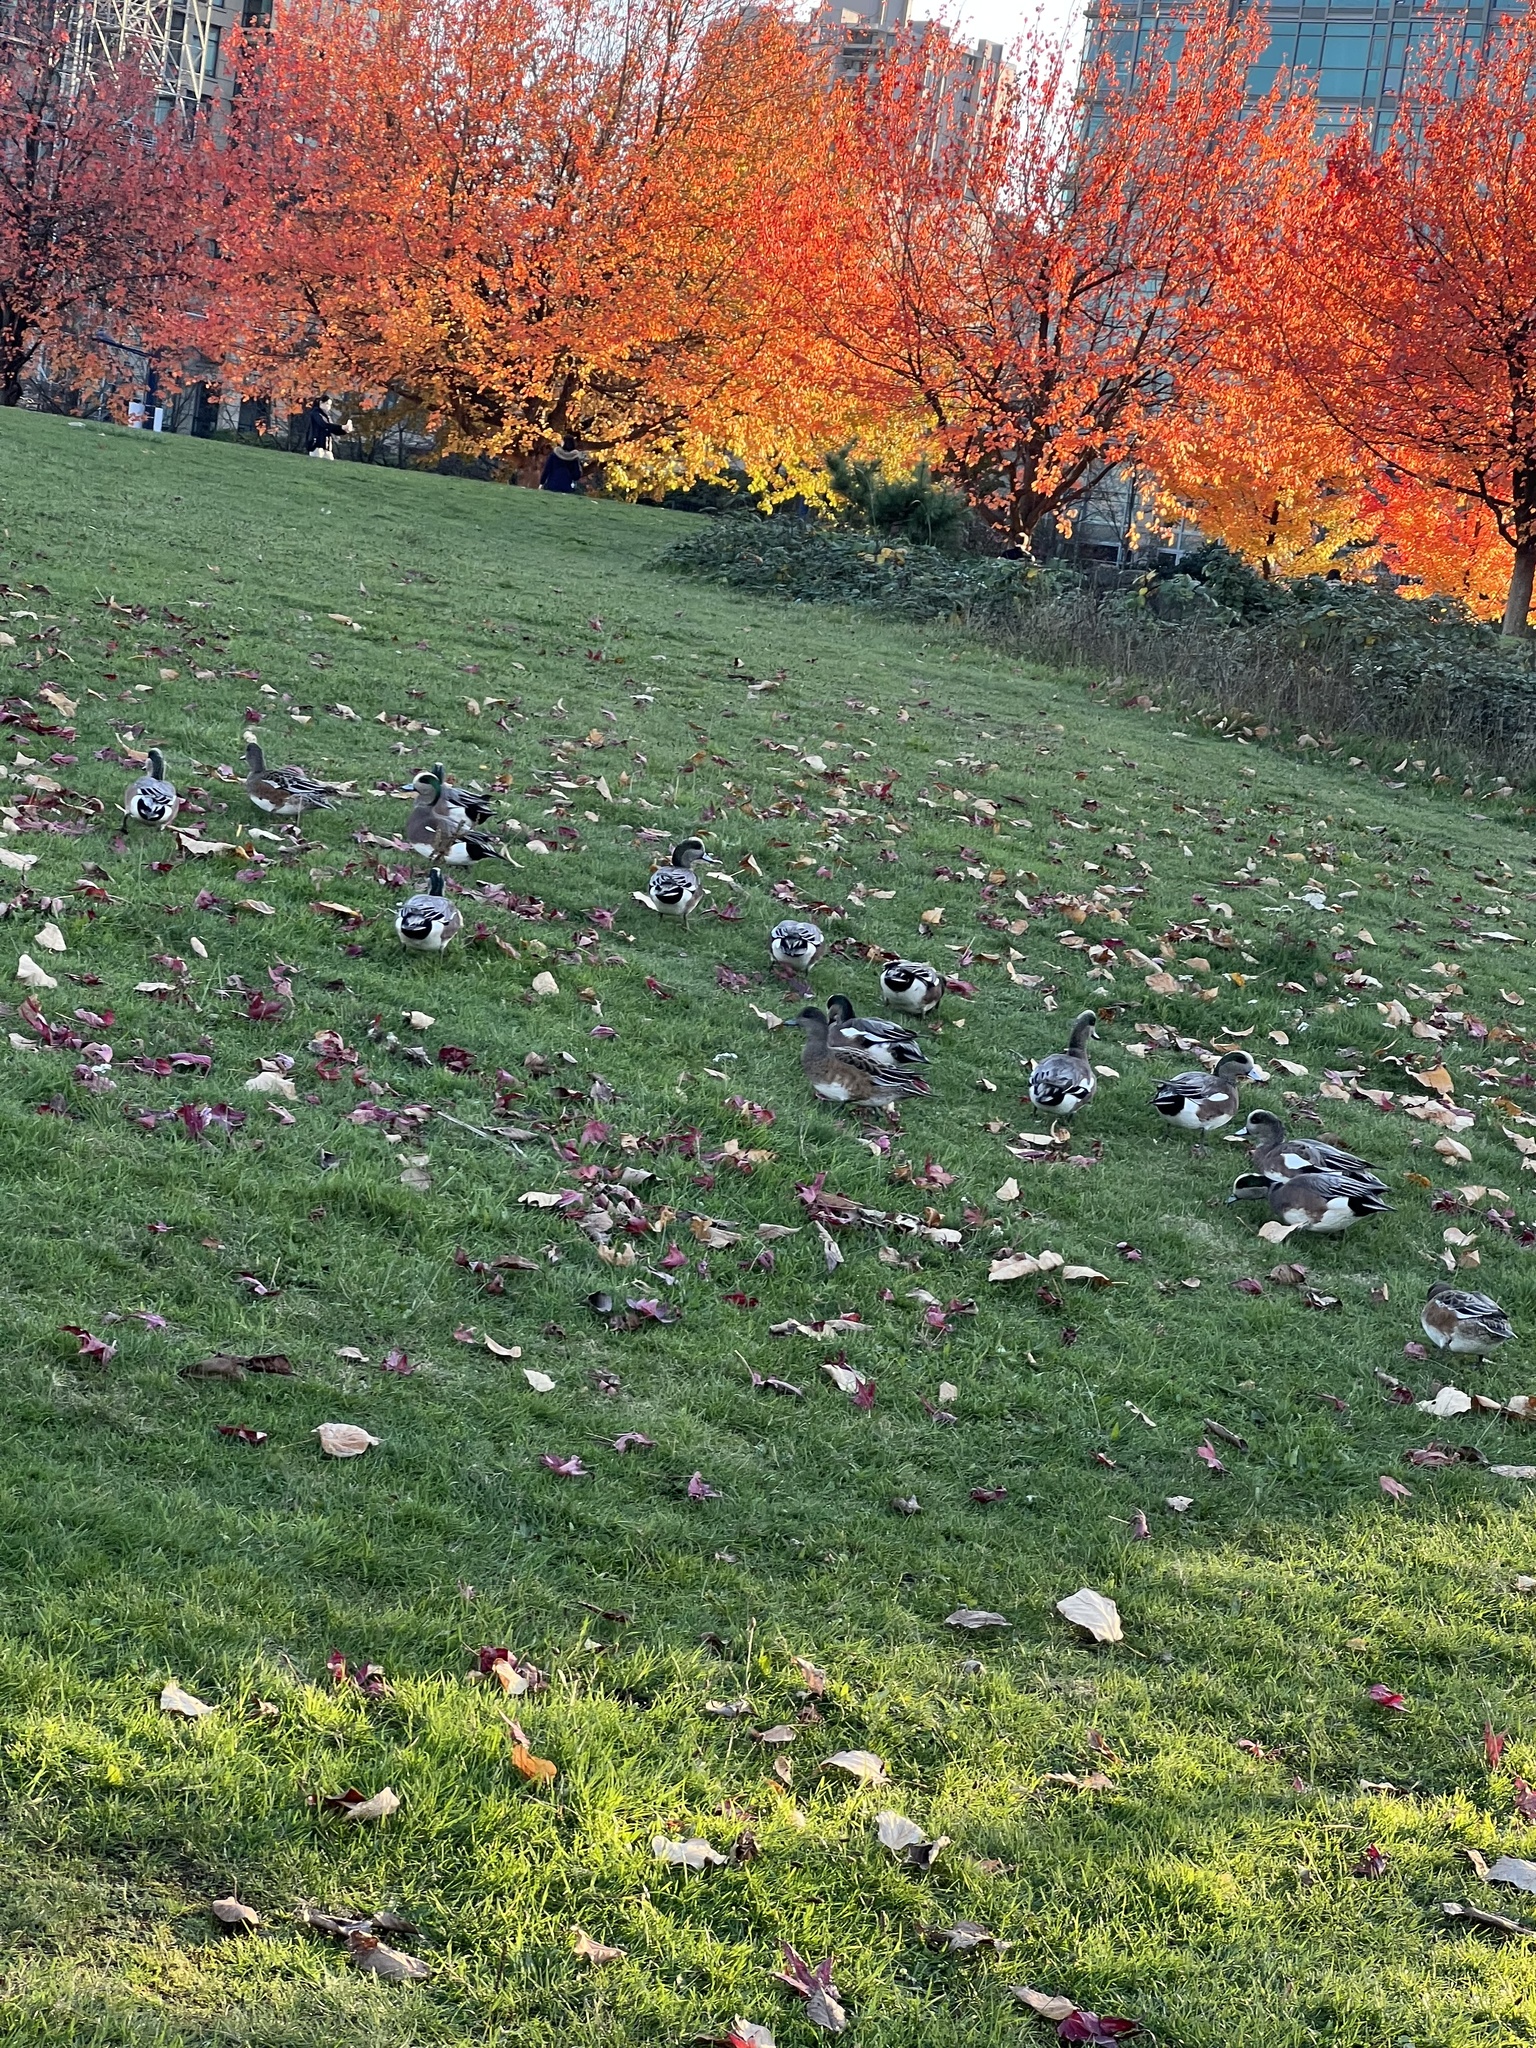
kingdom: Animalia
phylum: Chordata
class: Aves
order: Anseriformes
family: Anatidae
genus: Mareca
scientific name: Mareca americana
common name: American wigeon
